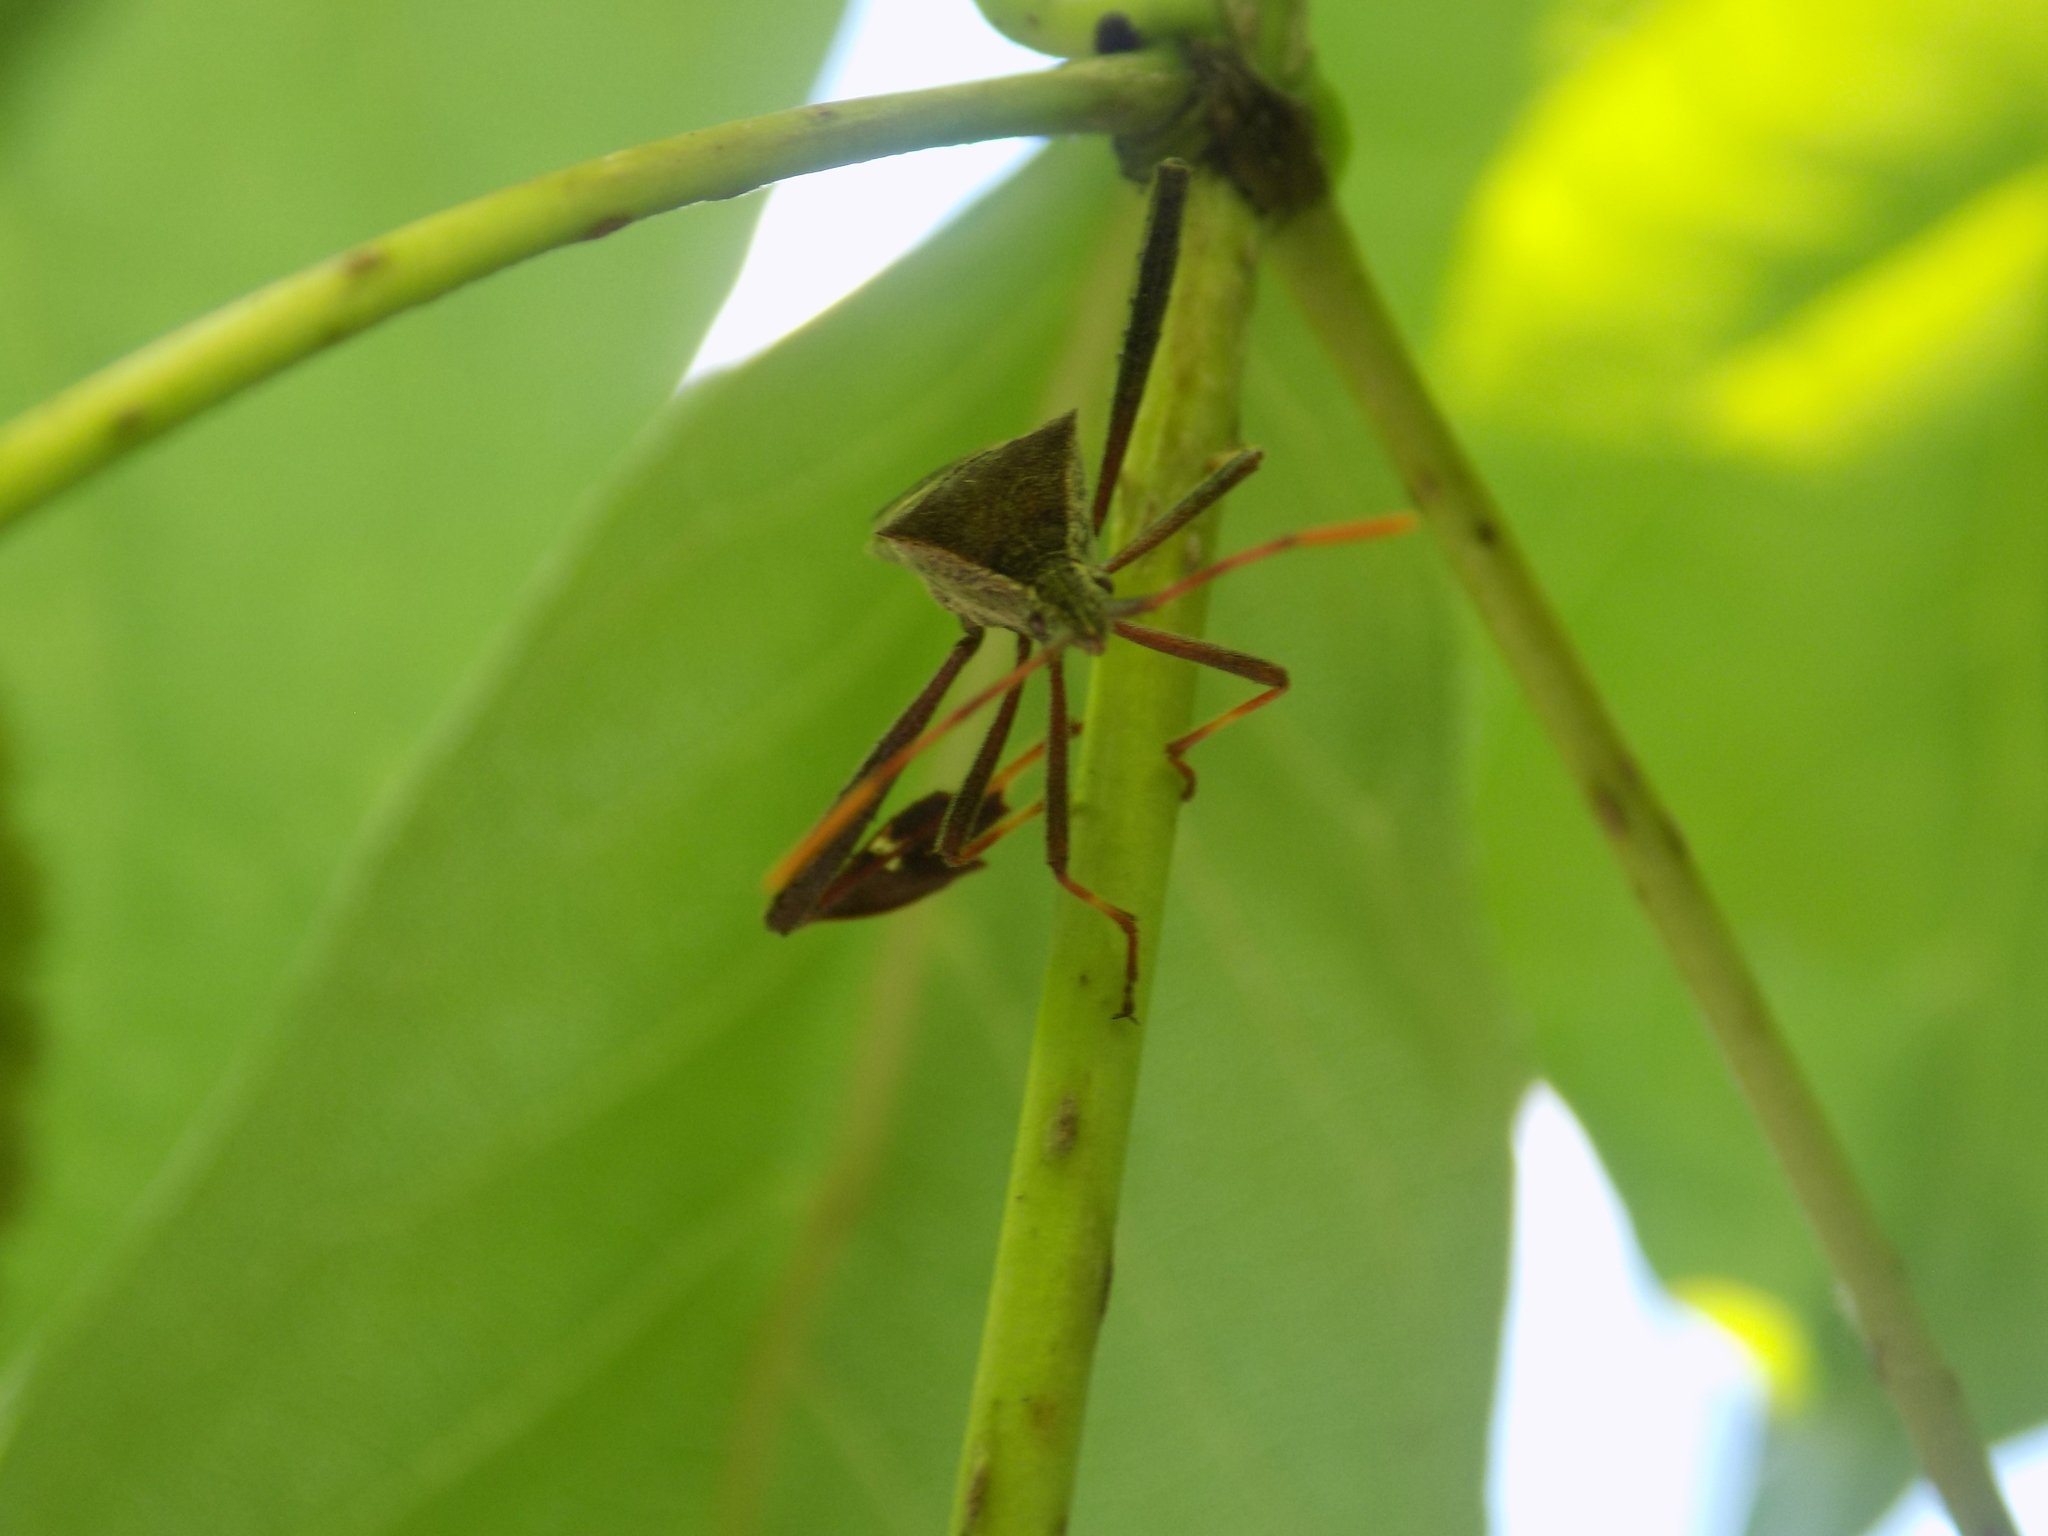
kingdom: Animalia
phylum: Arthropoda
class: Insecta
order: Hemiptera
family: Coreidae
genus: Leptoglossus
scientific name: Leptoglossus phyllopus
